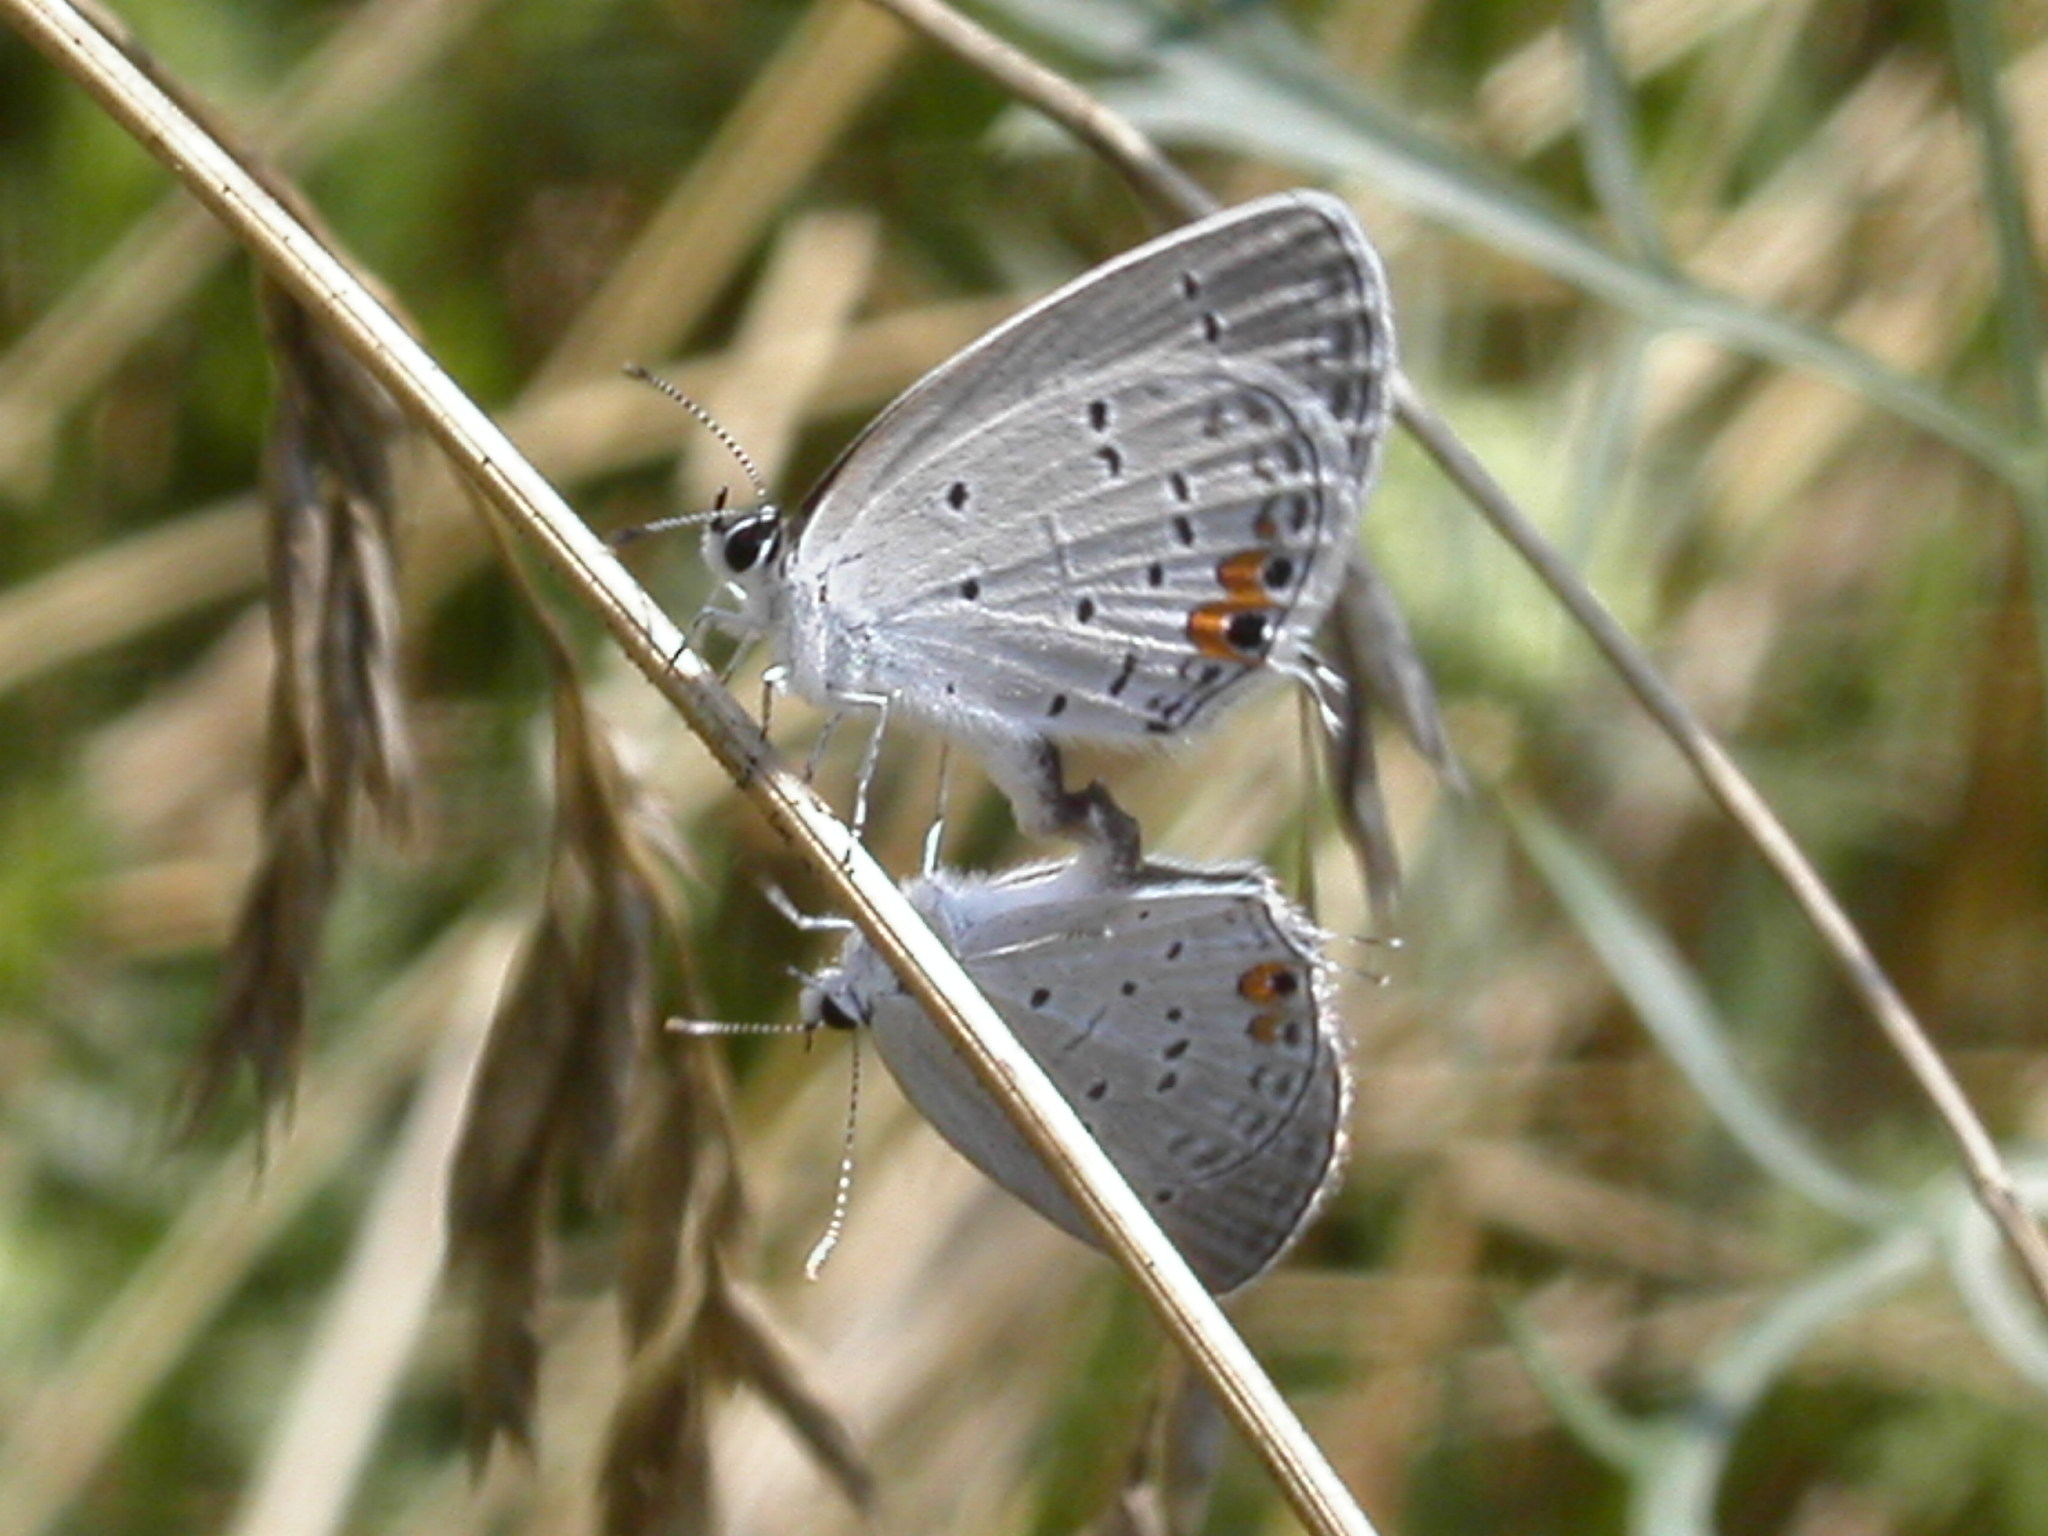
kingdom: Animalia
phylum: Arthropoda
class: Insecta
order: Lepidoptera
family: Lycaenidae
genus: Elkalyce
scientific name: Elkalyce comyntas
